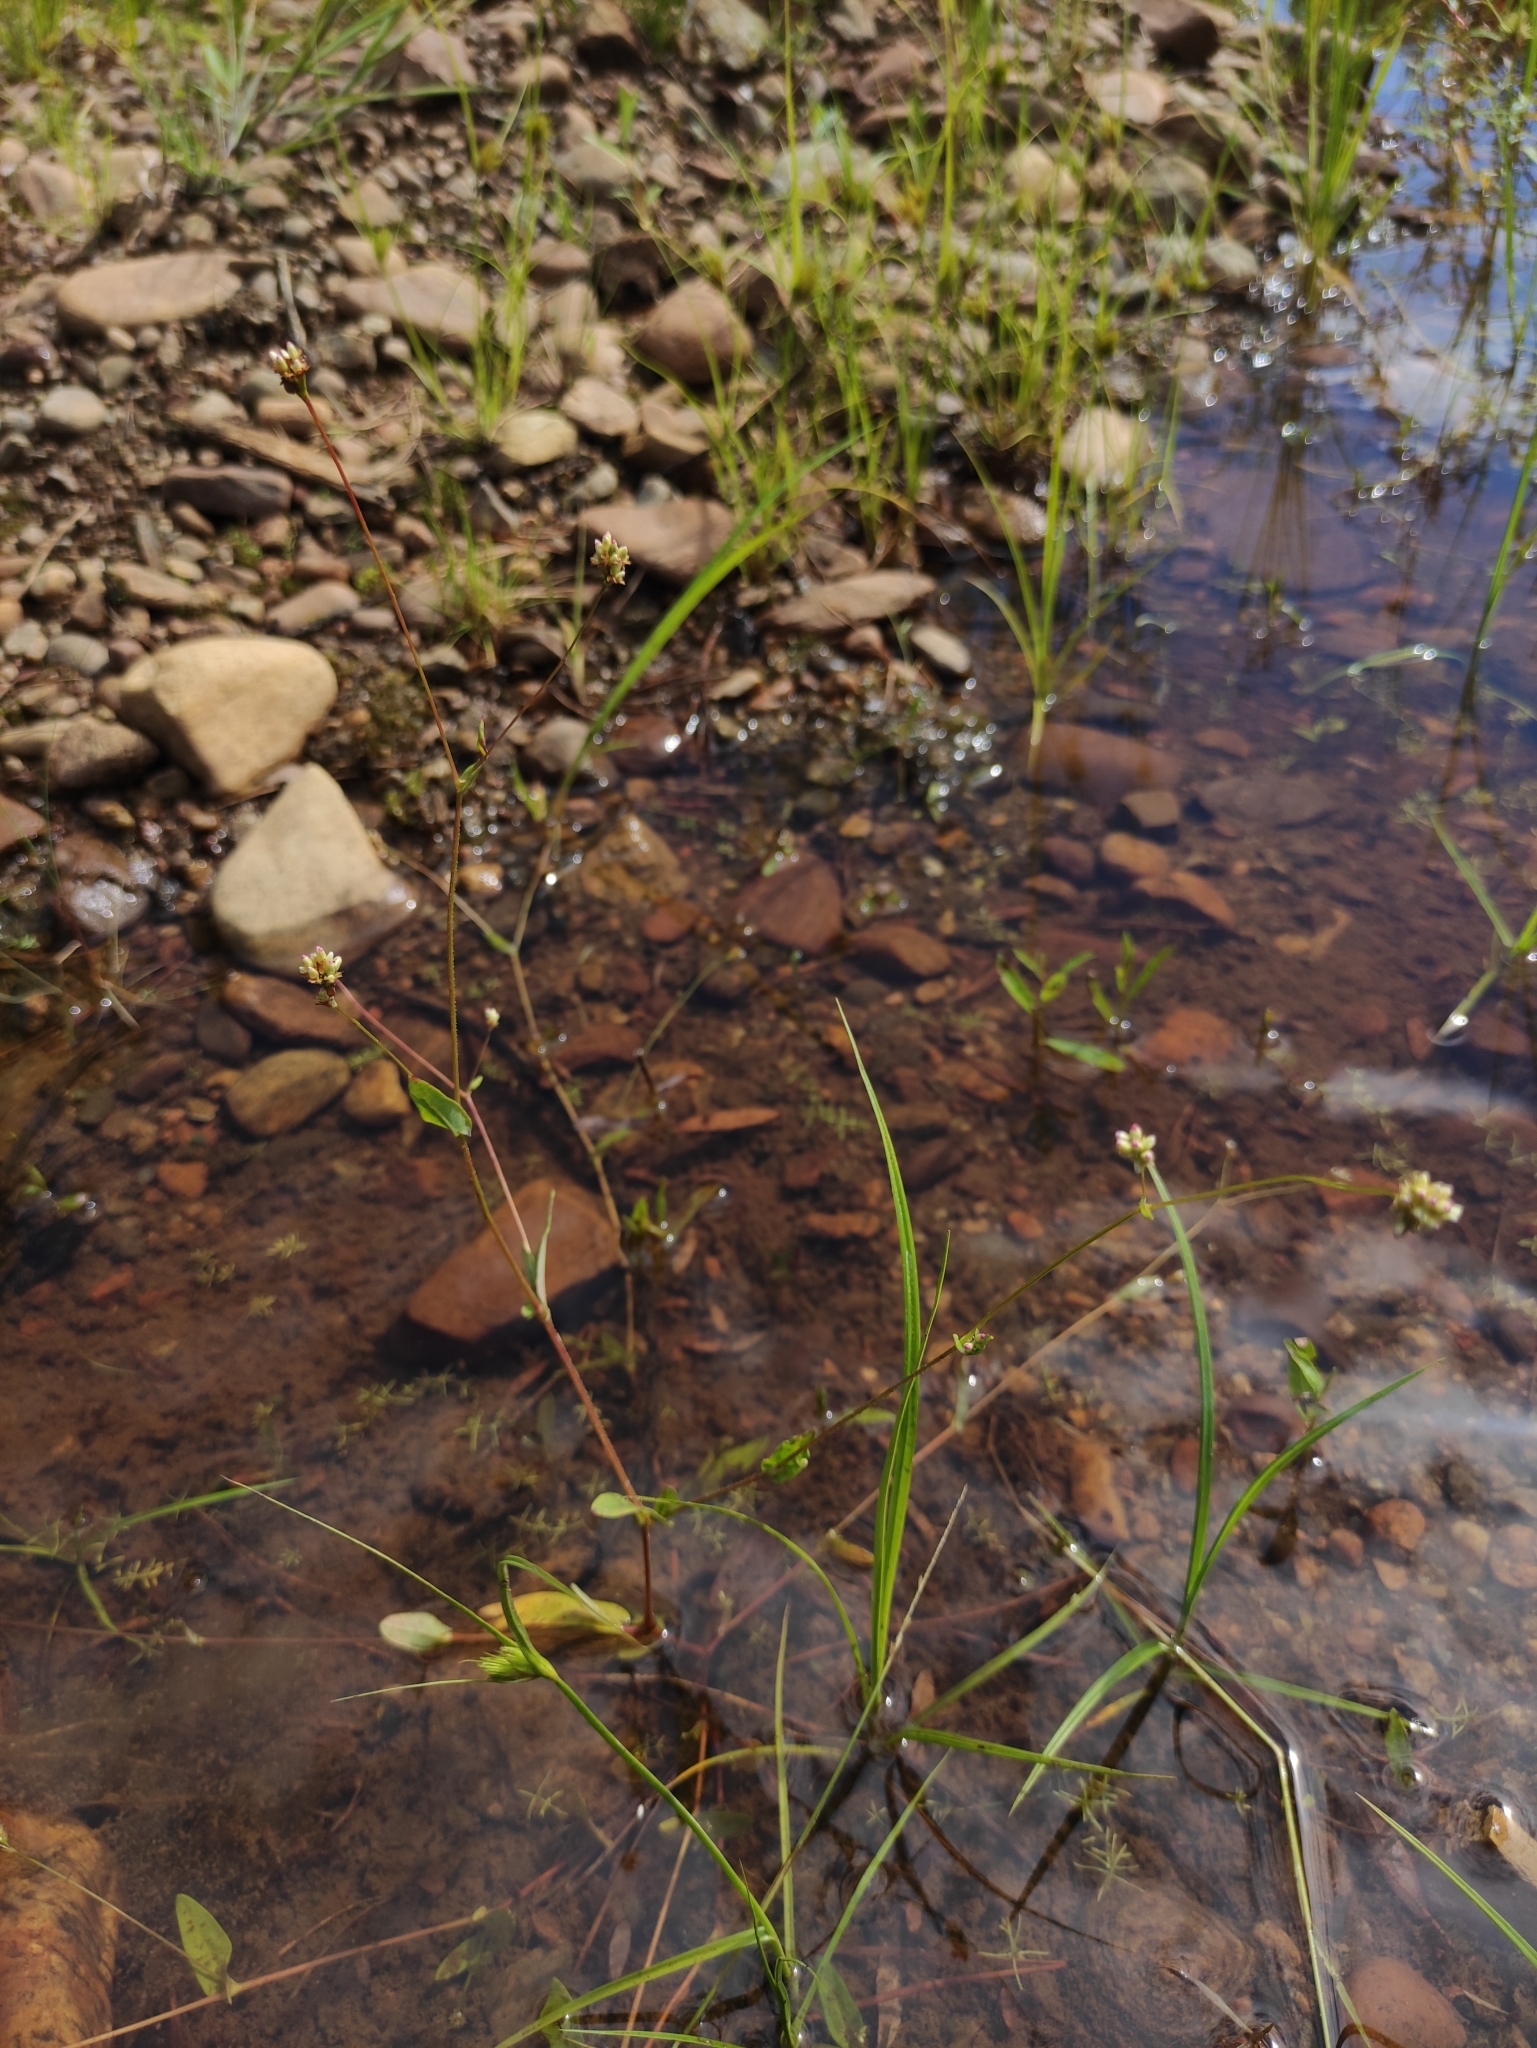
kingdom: Plantae
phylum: Tracheophyta
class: Magnoliopsida
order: Caryophyllales
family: Polygonaceae
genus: Persicaria
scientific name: Persicaria sagittata
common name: American tearthumb
